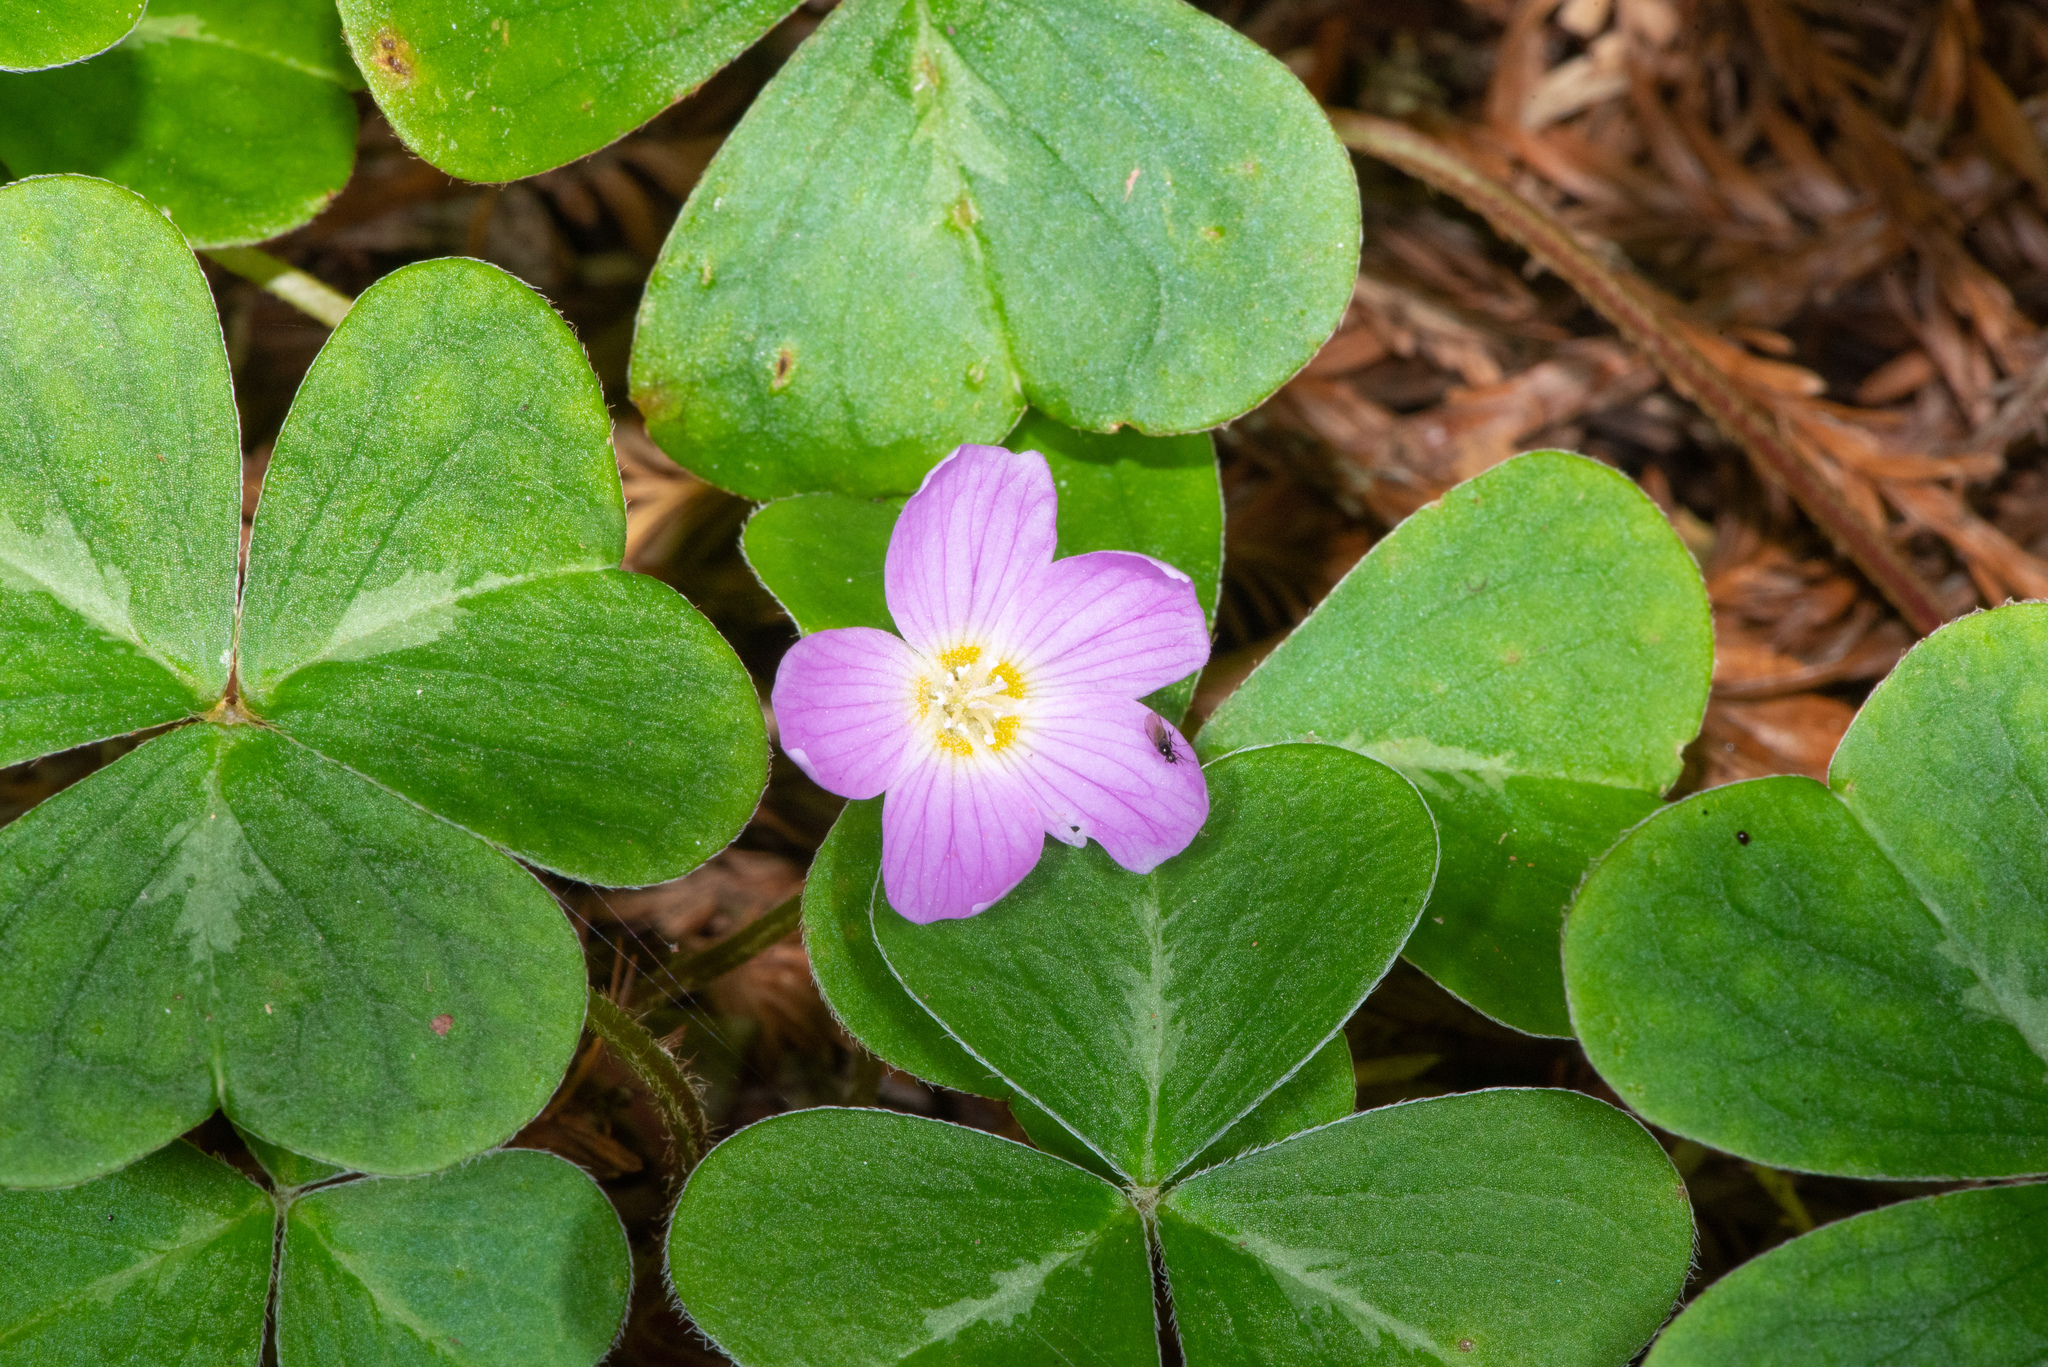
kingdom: Plantae
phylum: Tracheophyta
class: Magnoliopsida
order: Oxalidales
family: Oxalidaceae
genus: Oxalis
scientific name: Oxalis oregana
